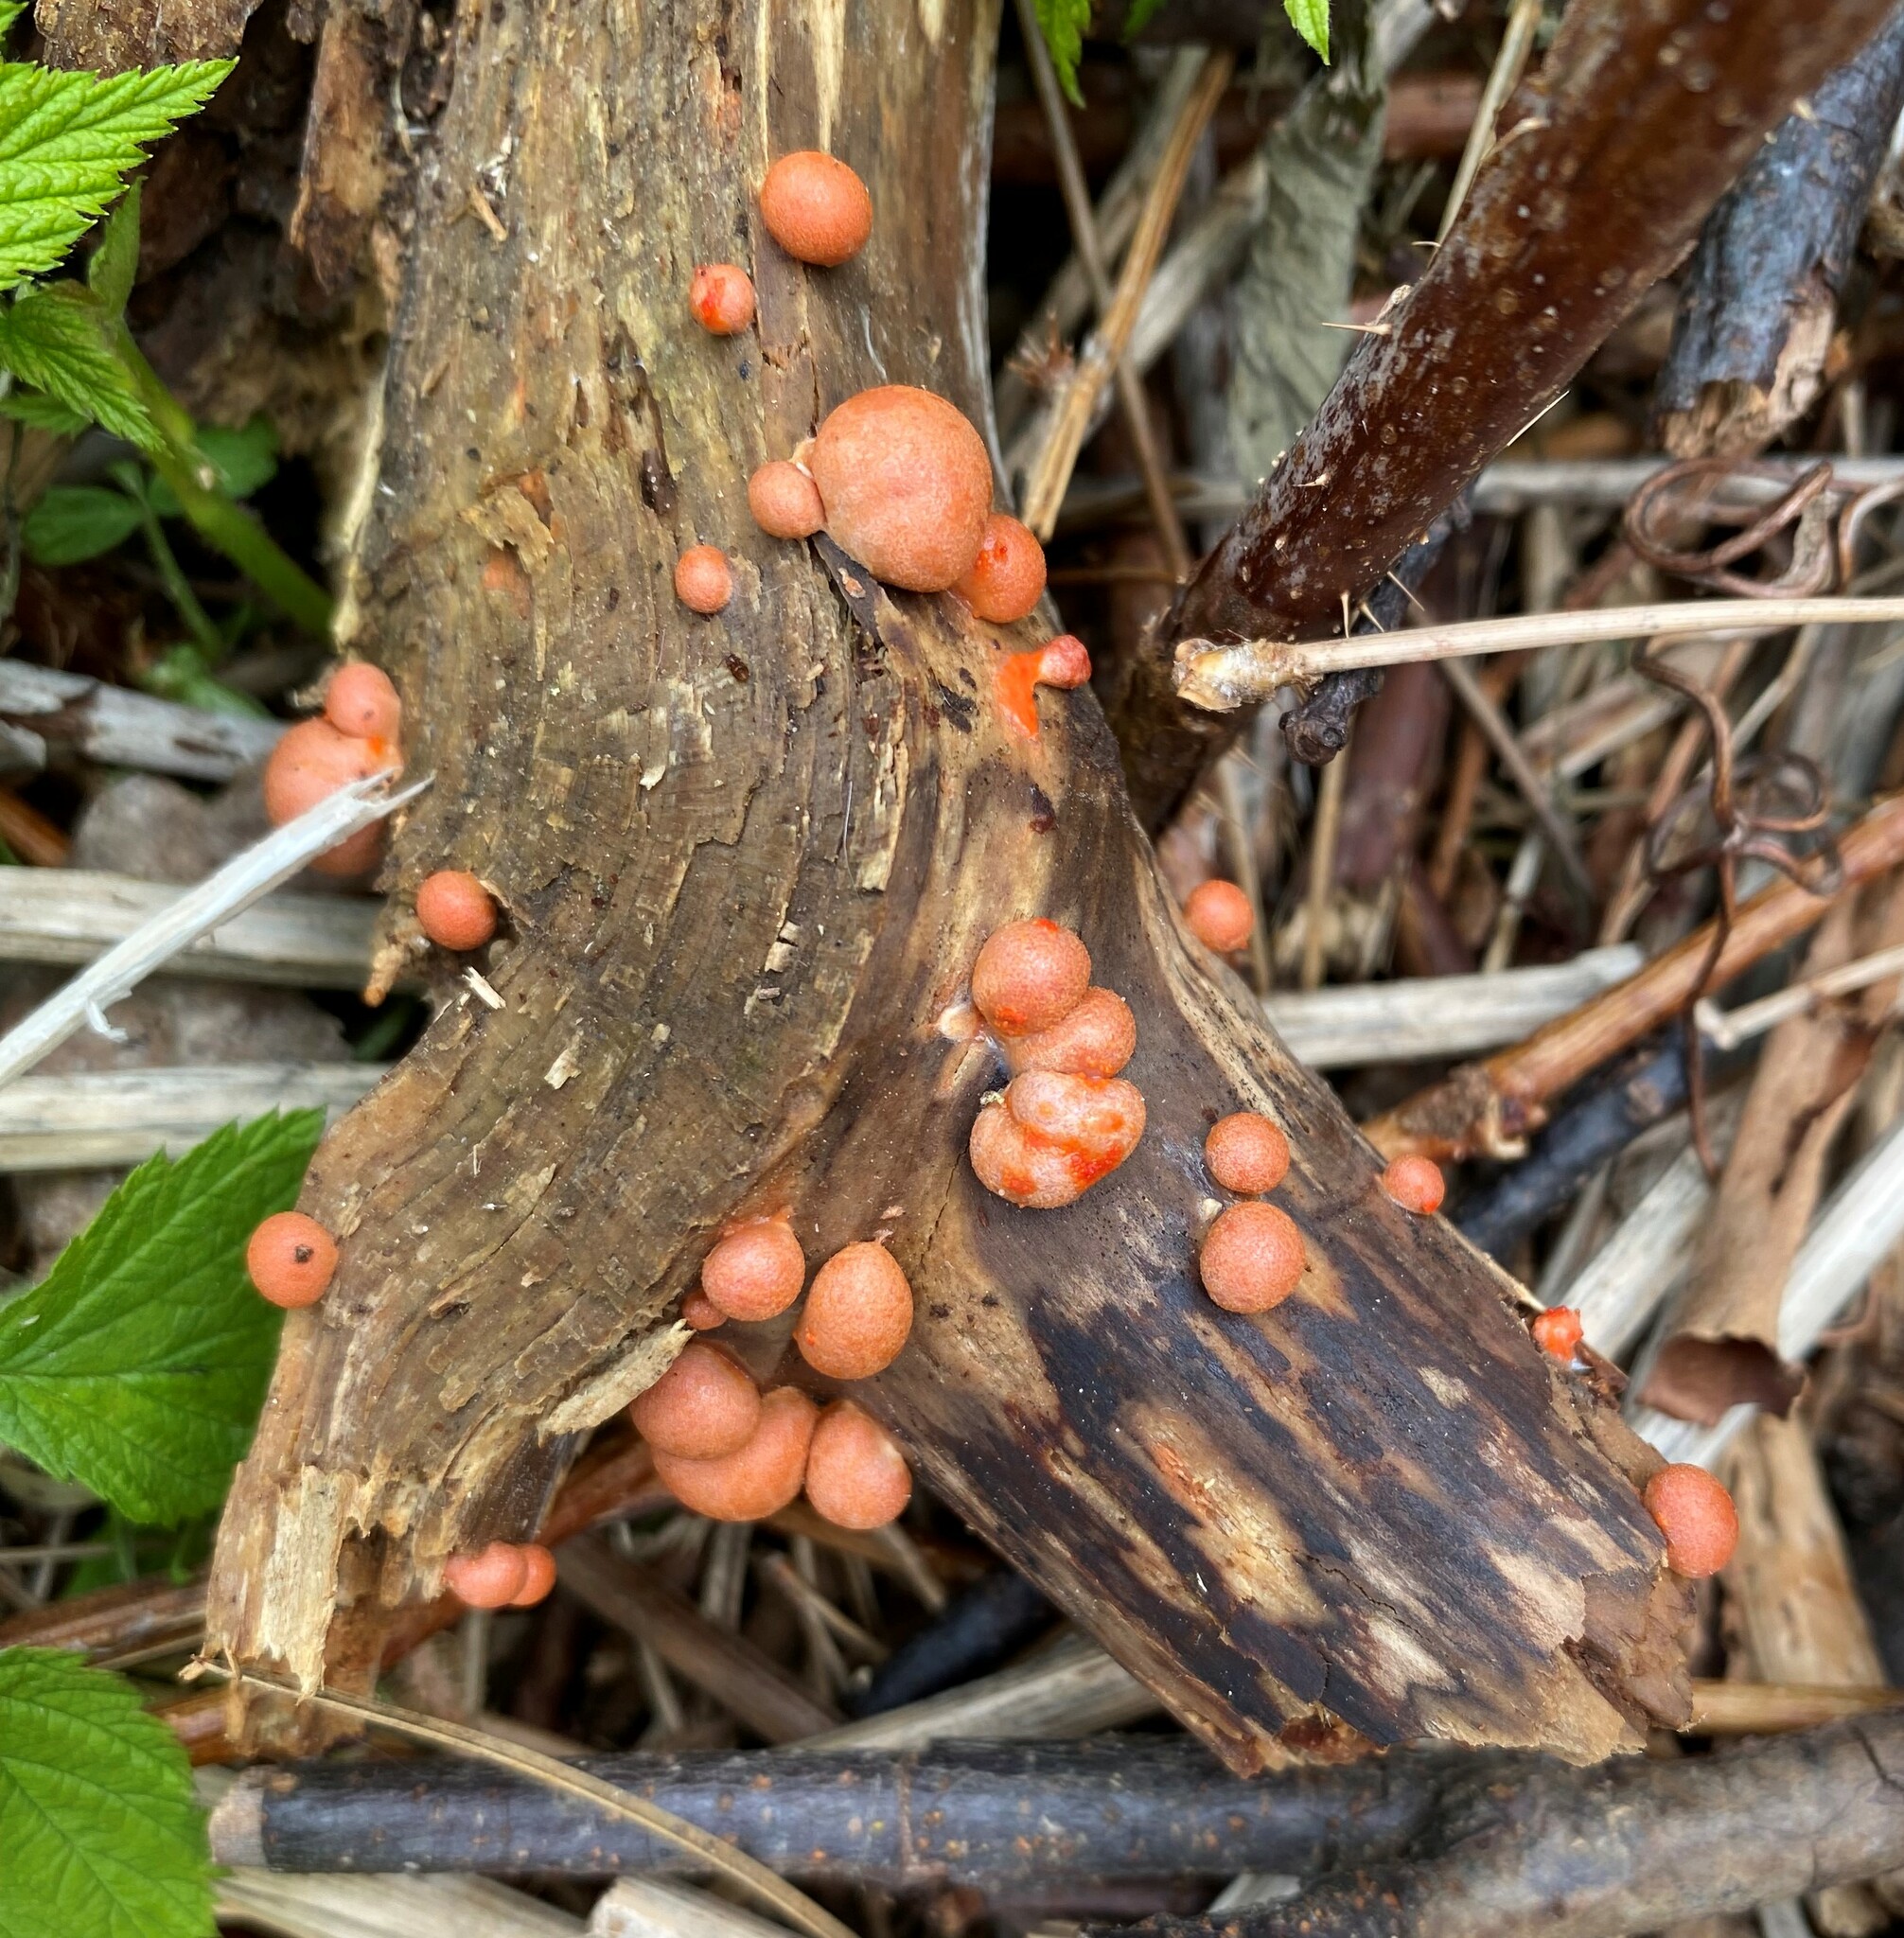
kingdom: Protozoa
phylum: Mycetozoa
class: Myxomycetes
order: Cribrariales
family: Tubiferaceae
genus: Lycogala
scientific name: Lycogala epidendrum
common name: Wolf's milk
